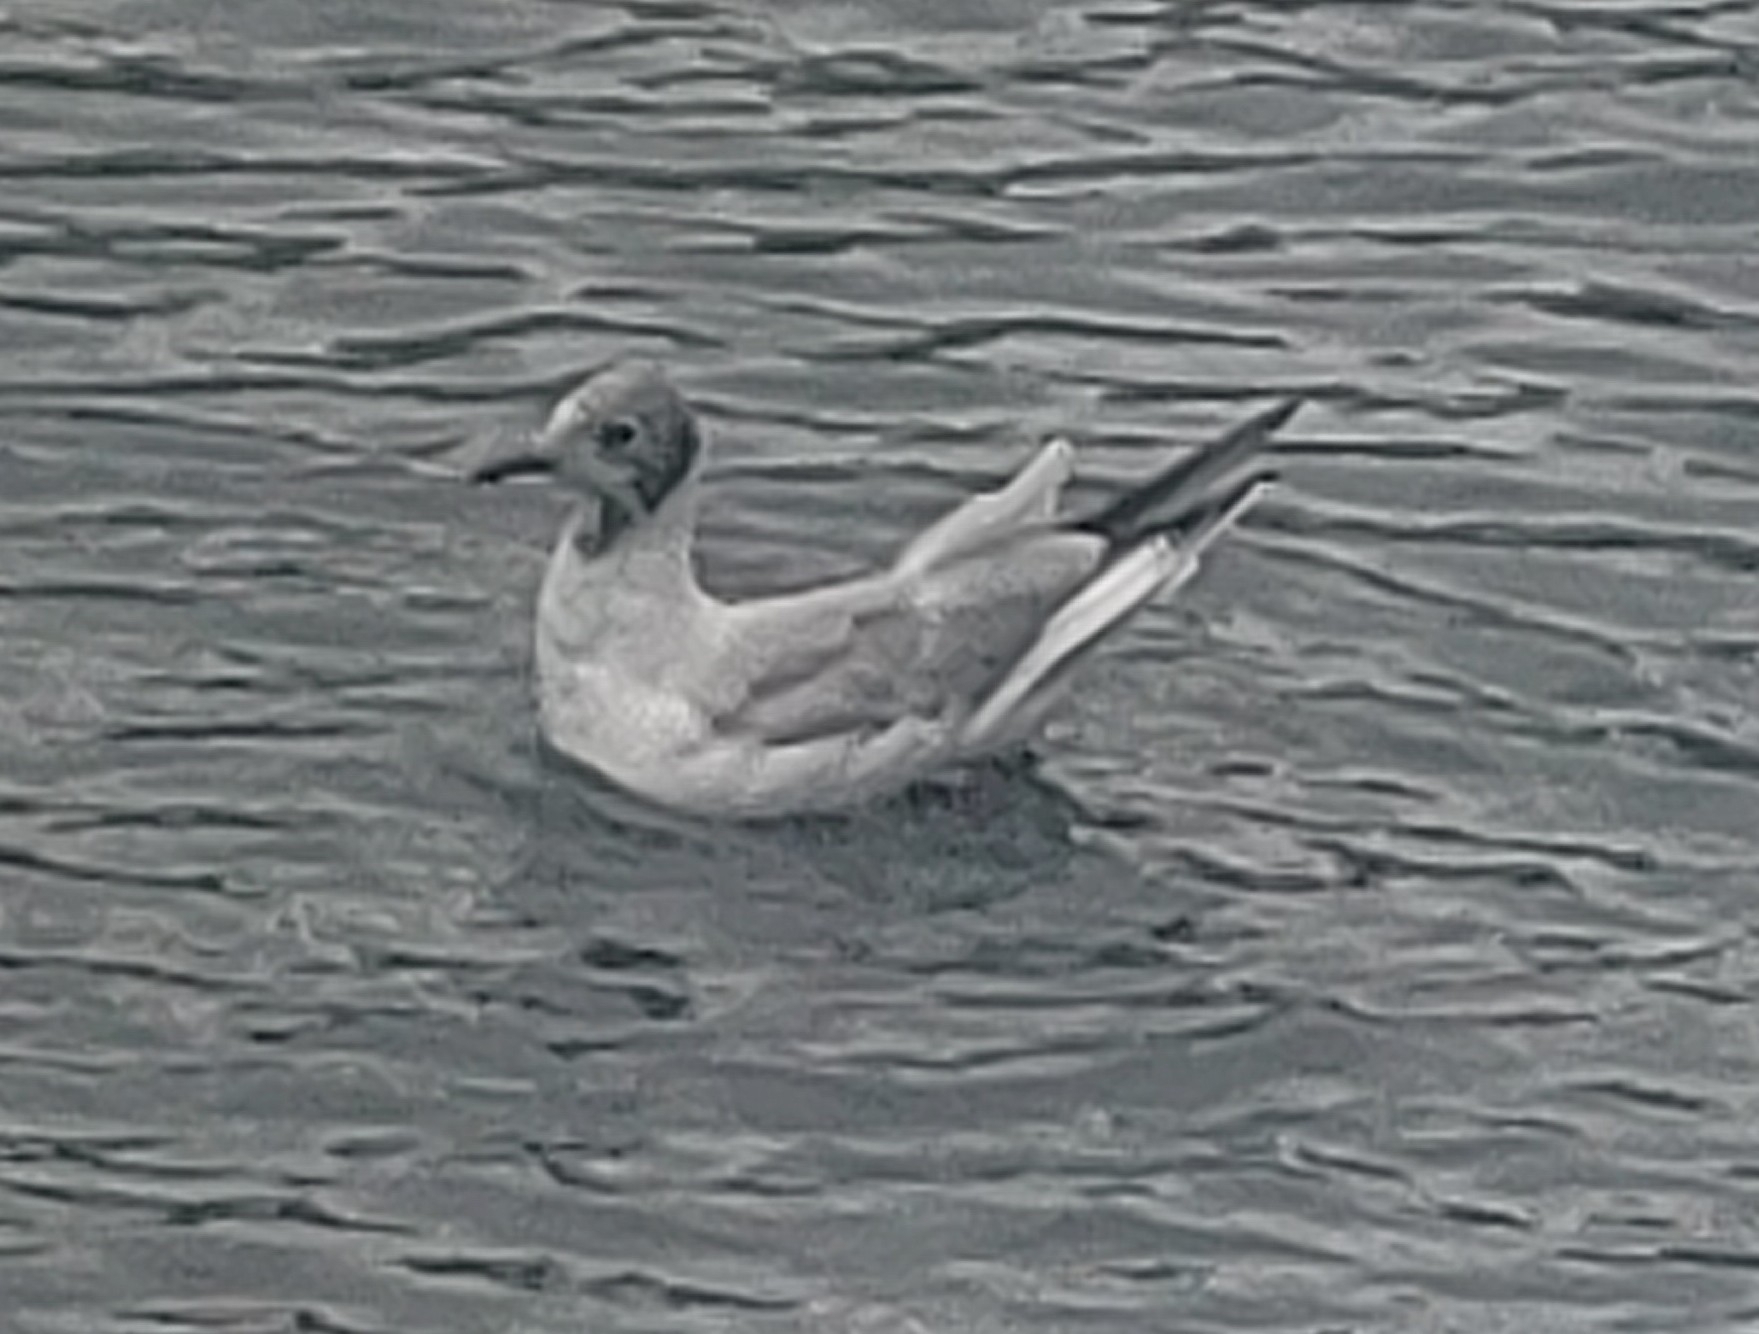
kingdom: Animalia
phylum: Chordata
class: Aves
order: Charadriiformes
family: Laridae
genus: Chroicocephalus
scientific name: Chroicocephalus ridibundus
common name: Black-headed gull
